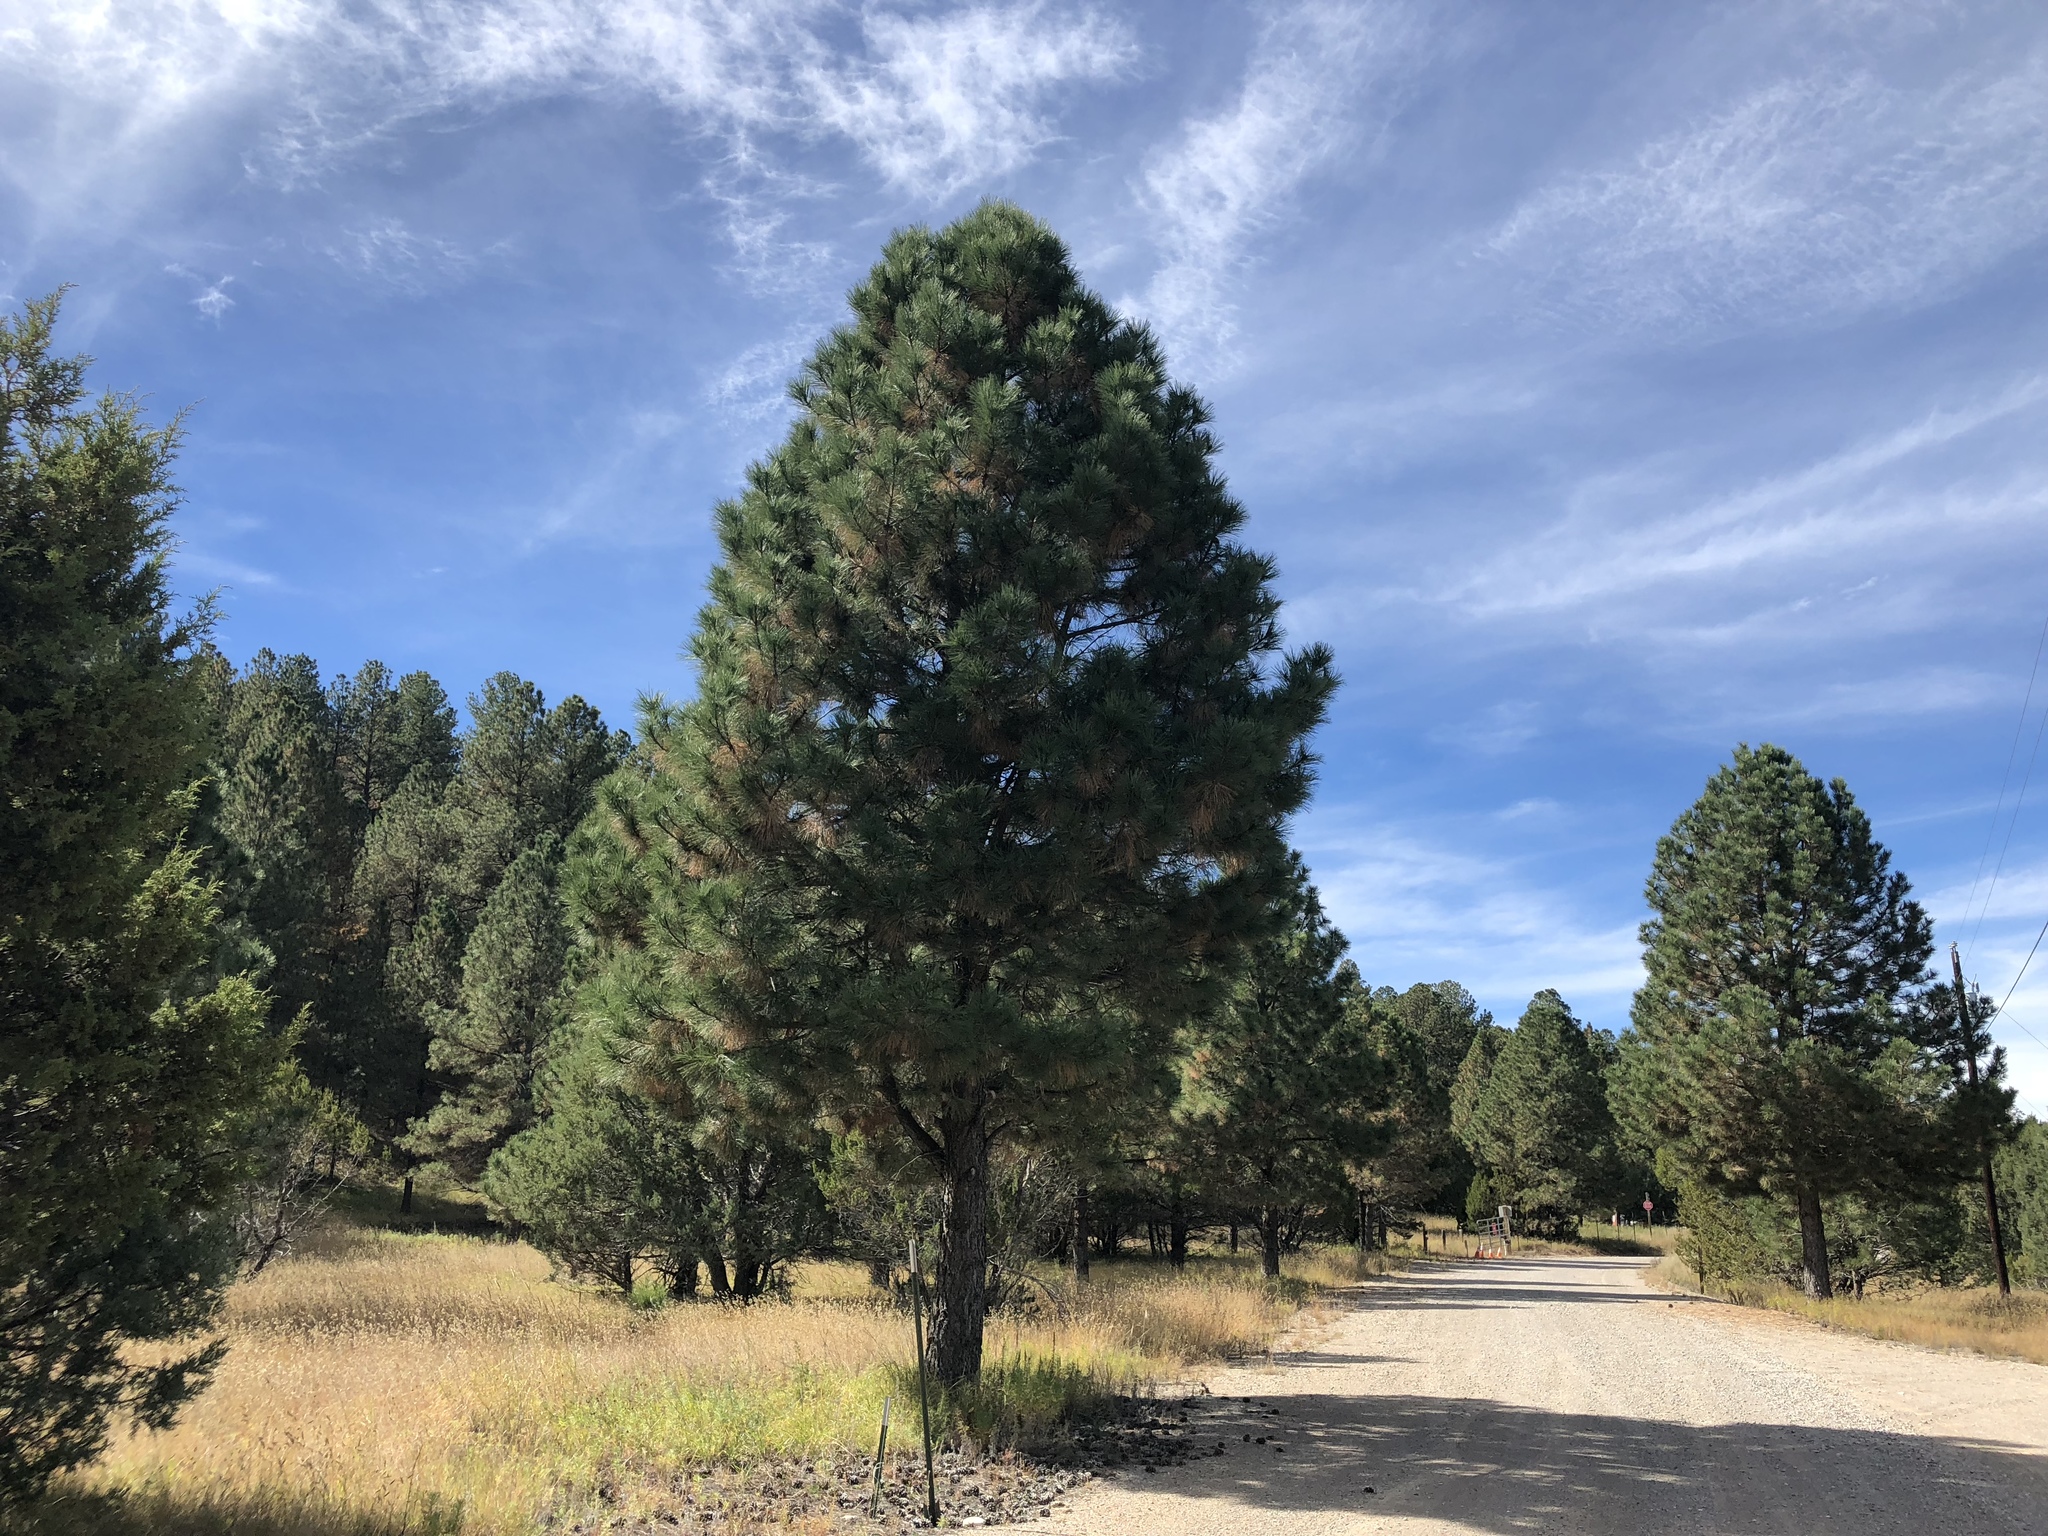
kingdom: Plantae
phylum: Tracheophyta
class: Pinopsida
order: Pinales
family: Pinaceae
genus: Pinus
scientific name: Pinus ponderosa
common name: Western yellow-pine
